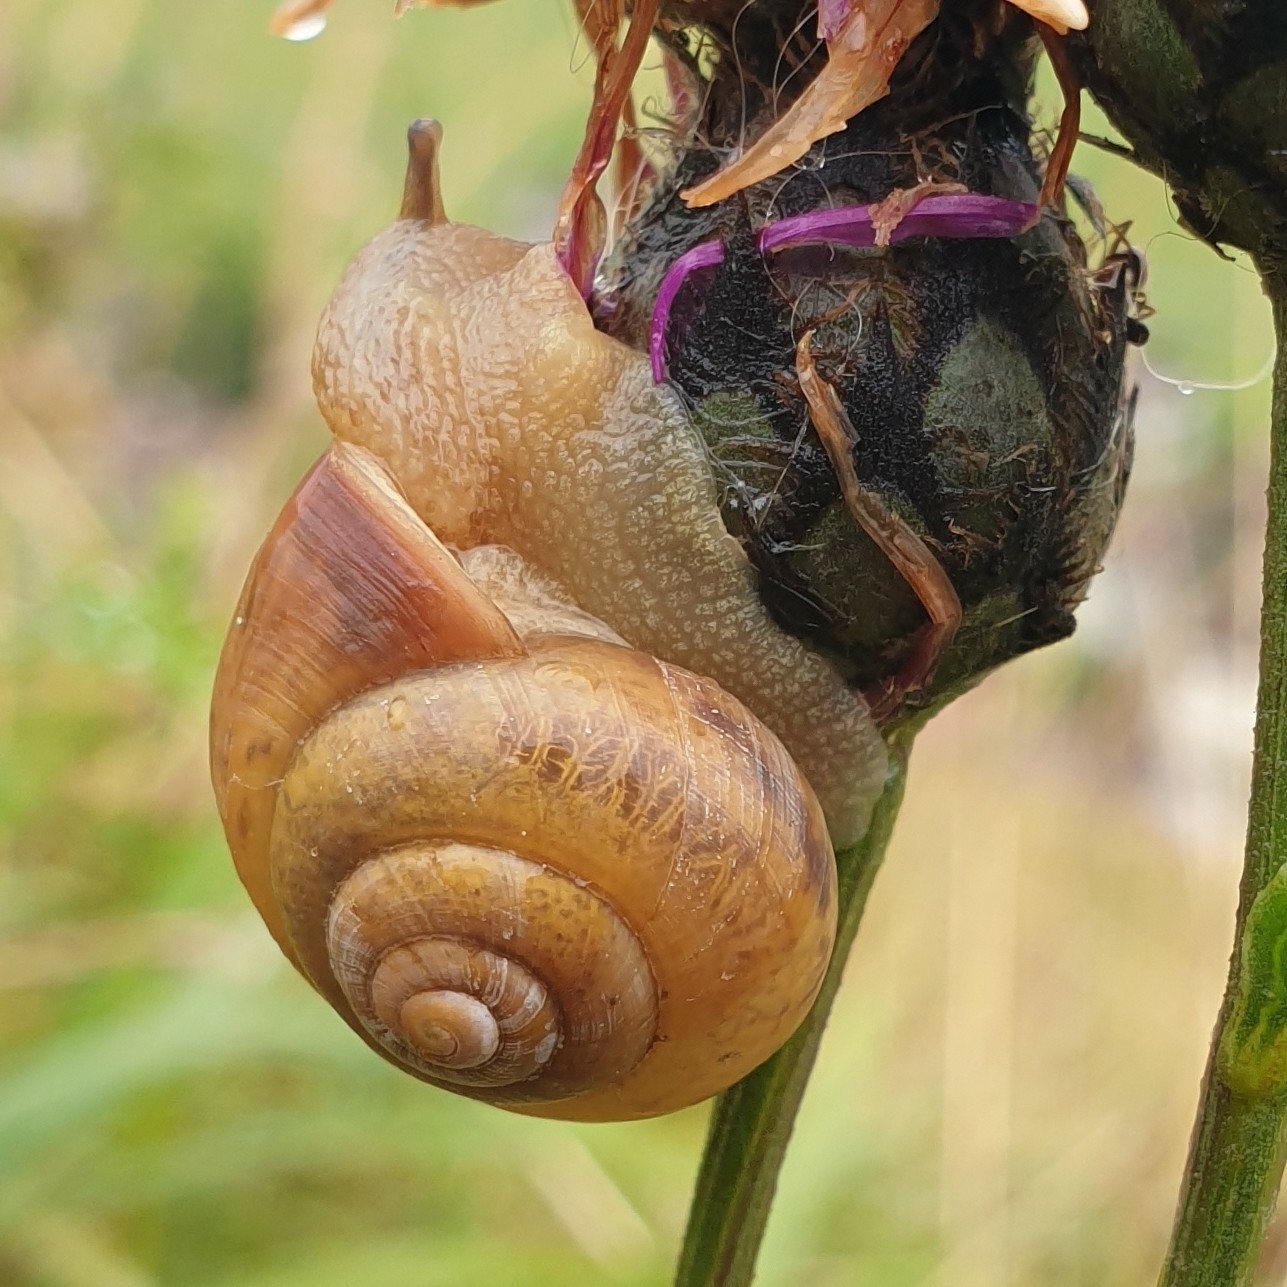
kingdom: Animalia
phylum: Mollusca
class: Gastropoda
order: Stylommatophora
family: Camaenidae
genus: Fruticicola
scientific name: Fruticicola fruticum
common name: Bush snail
